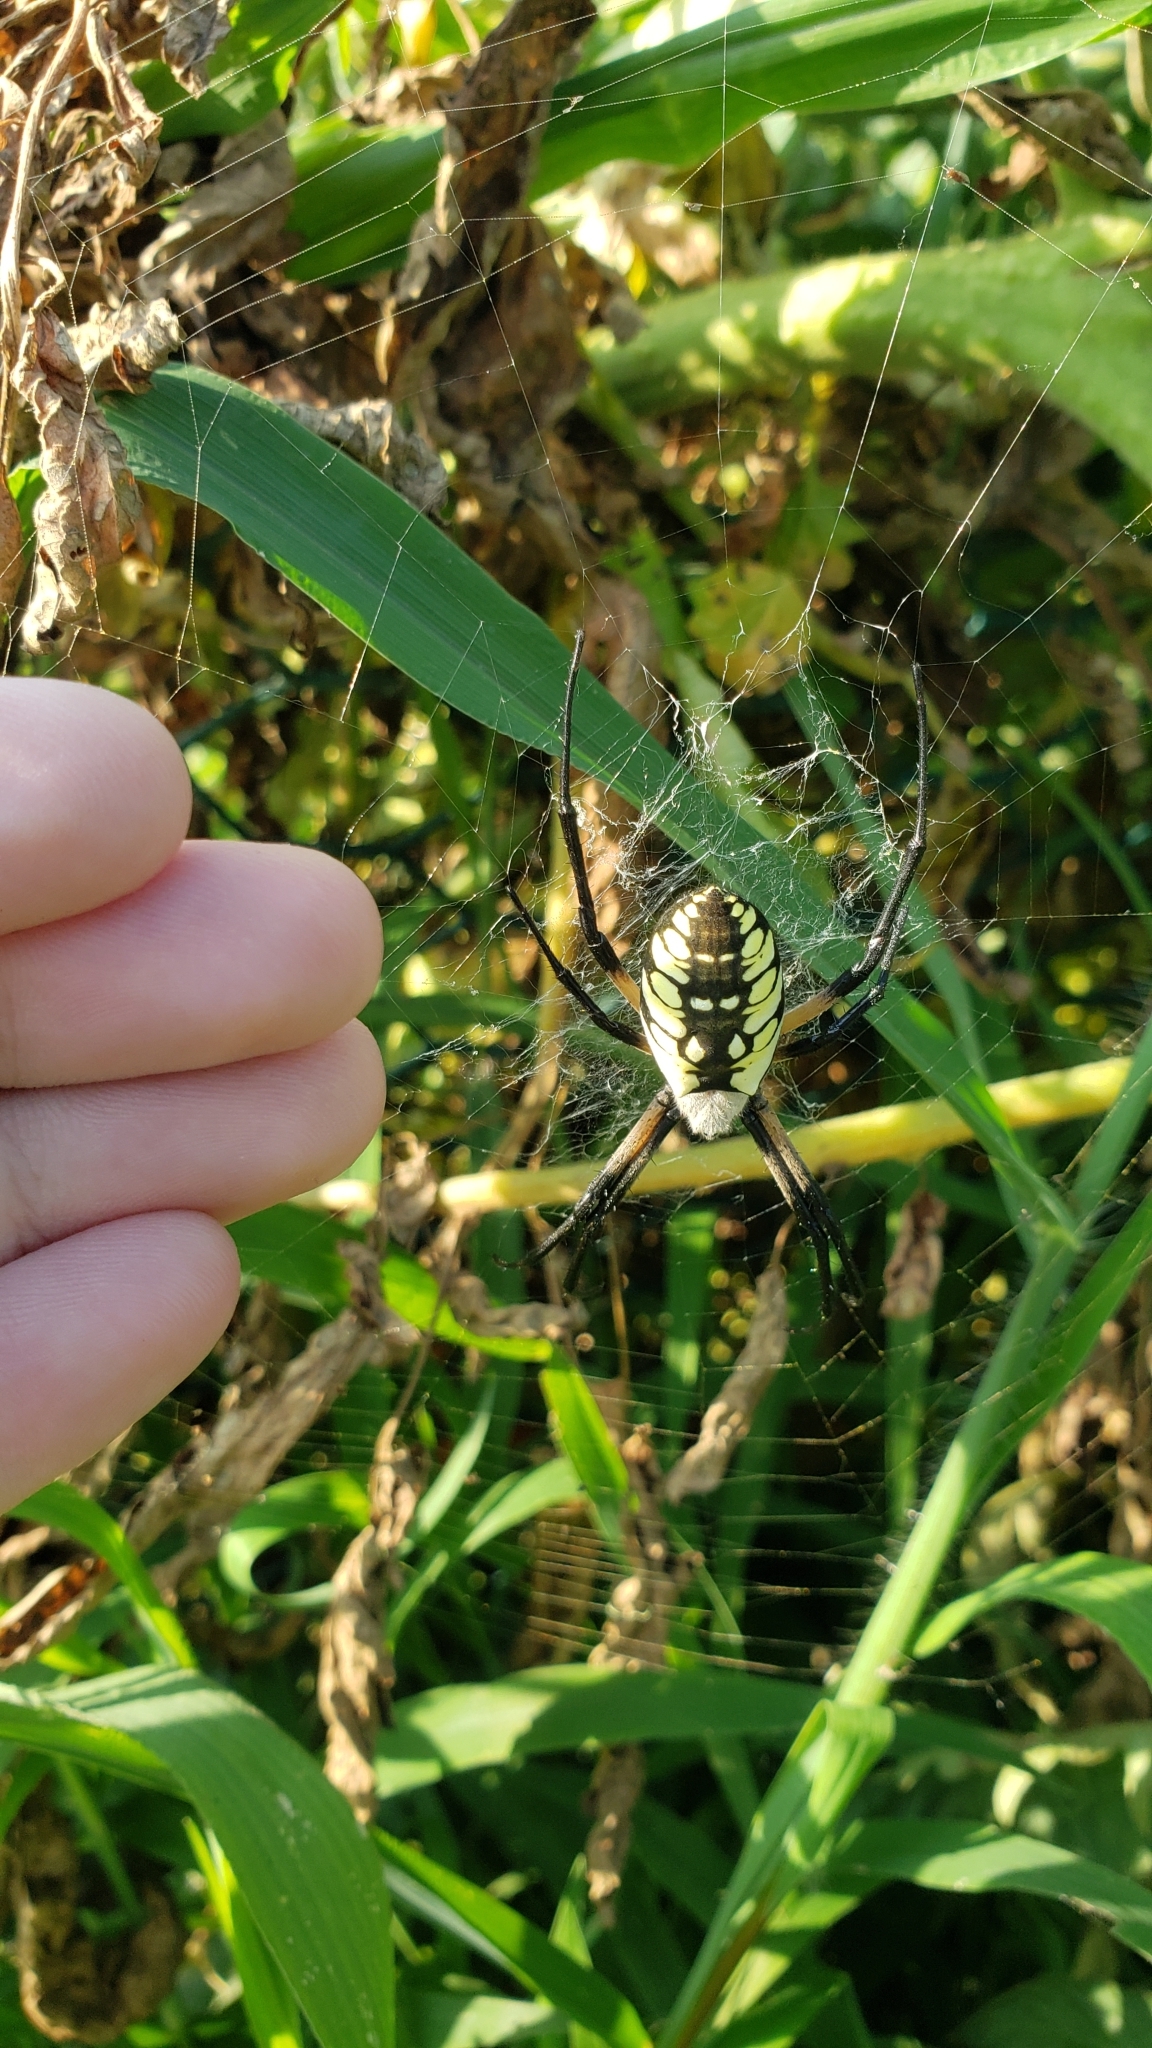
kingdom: Animalia
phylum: Arthropoda
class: Arachnida
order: Araneae
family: Araneidae
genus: Argiope
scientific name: Argiope aurantia
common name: Orb weavers
